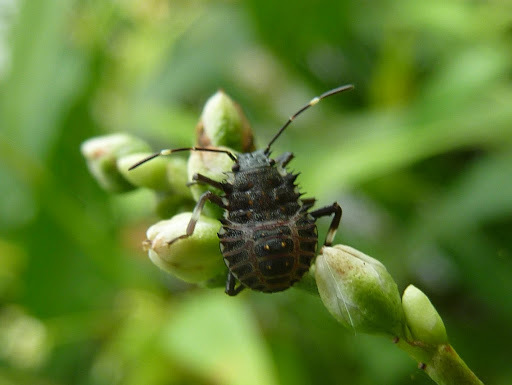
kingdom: Animalia
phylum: Arthropoda
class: Insecta
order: Hemiptera
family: Pentatomidae
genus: Halyomorpha
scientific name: Halyomorpha halys
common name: Brown marmorated stink bug
